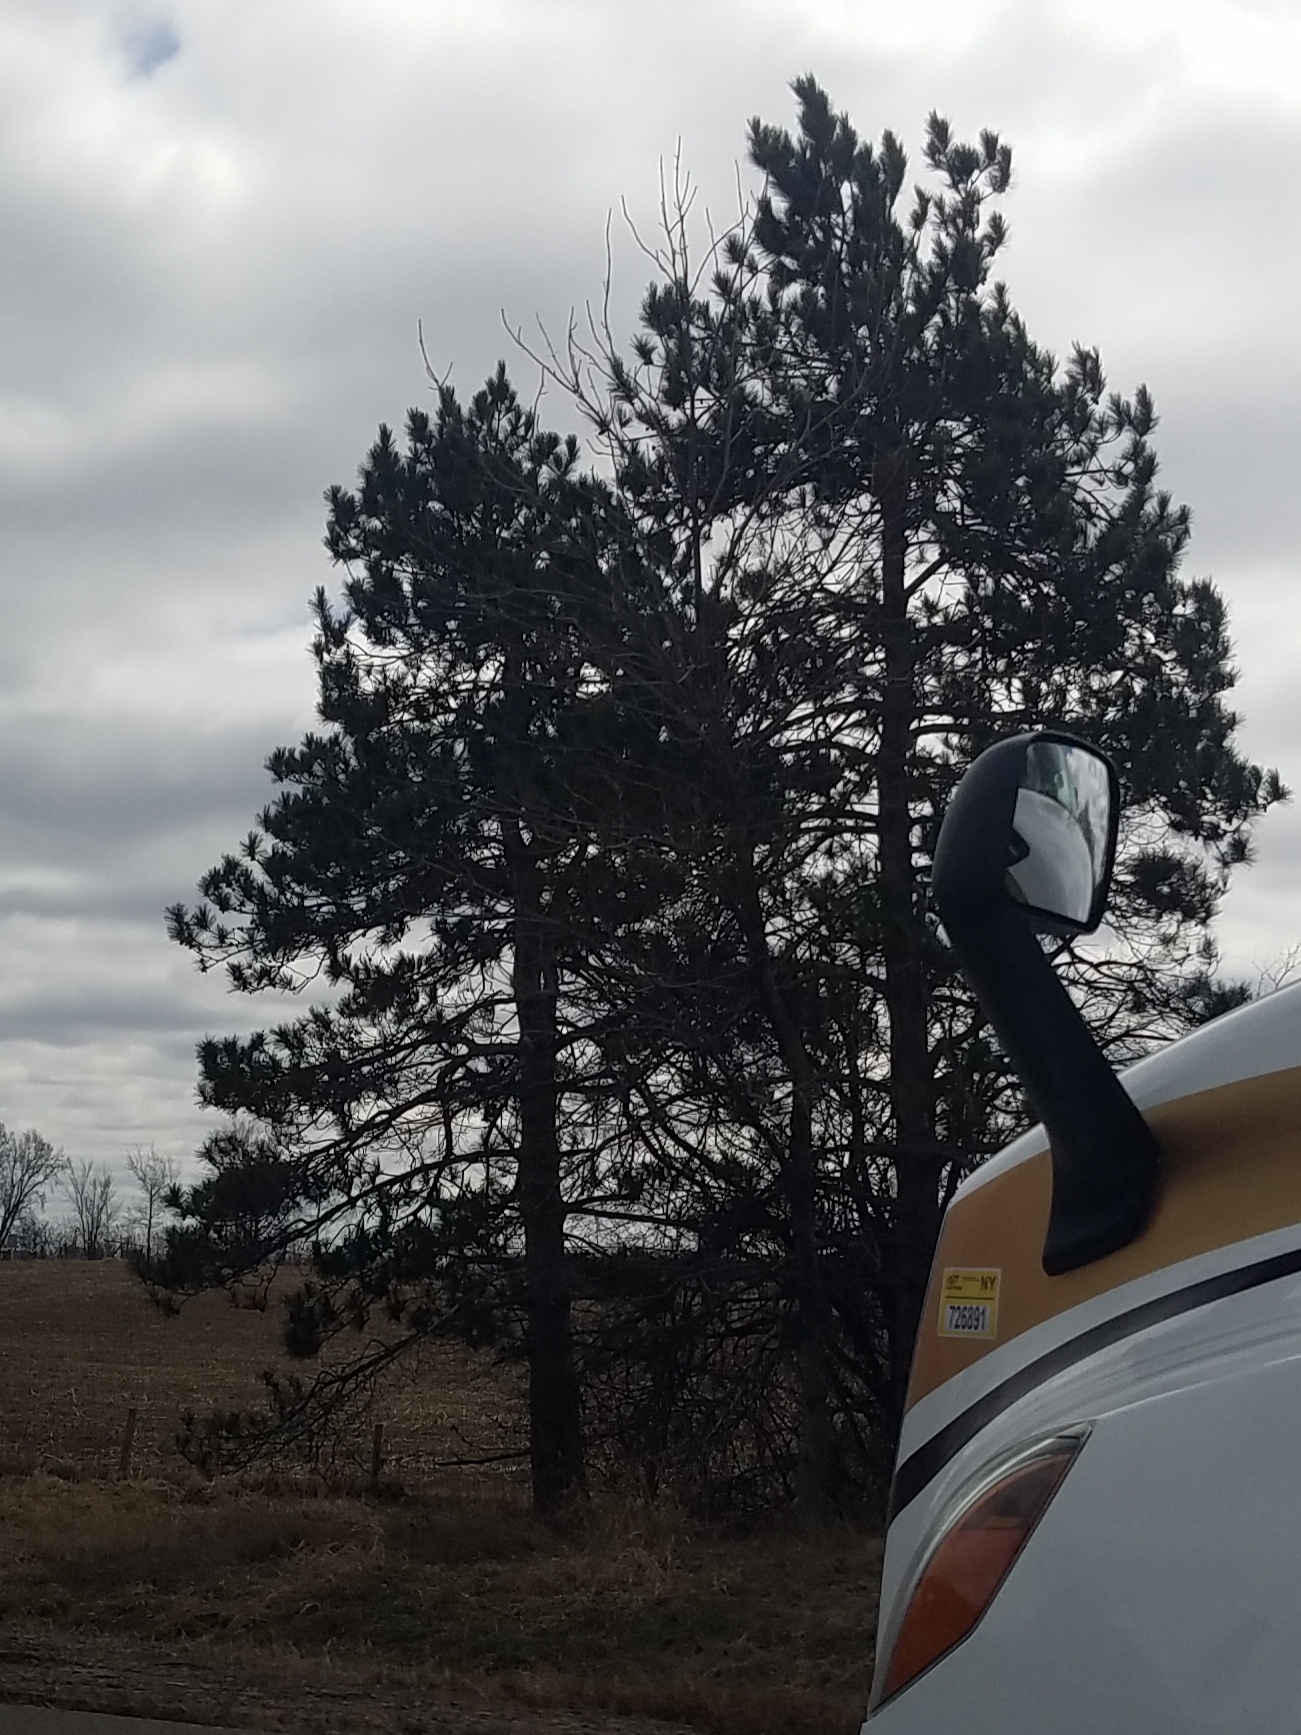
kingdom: Plantae
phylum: Tracheophyta
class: Pinopsida
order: Pinales
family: Pinaceae
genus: Pinus
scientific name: Pinus resinosa
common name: Norway pine
